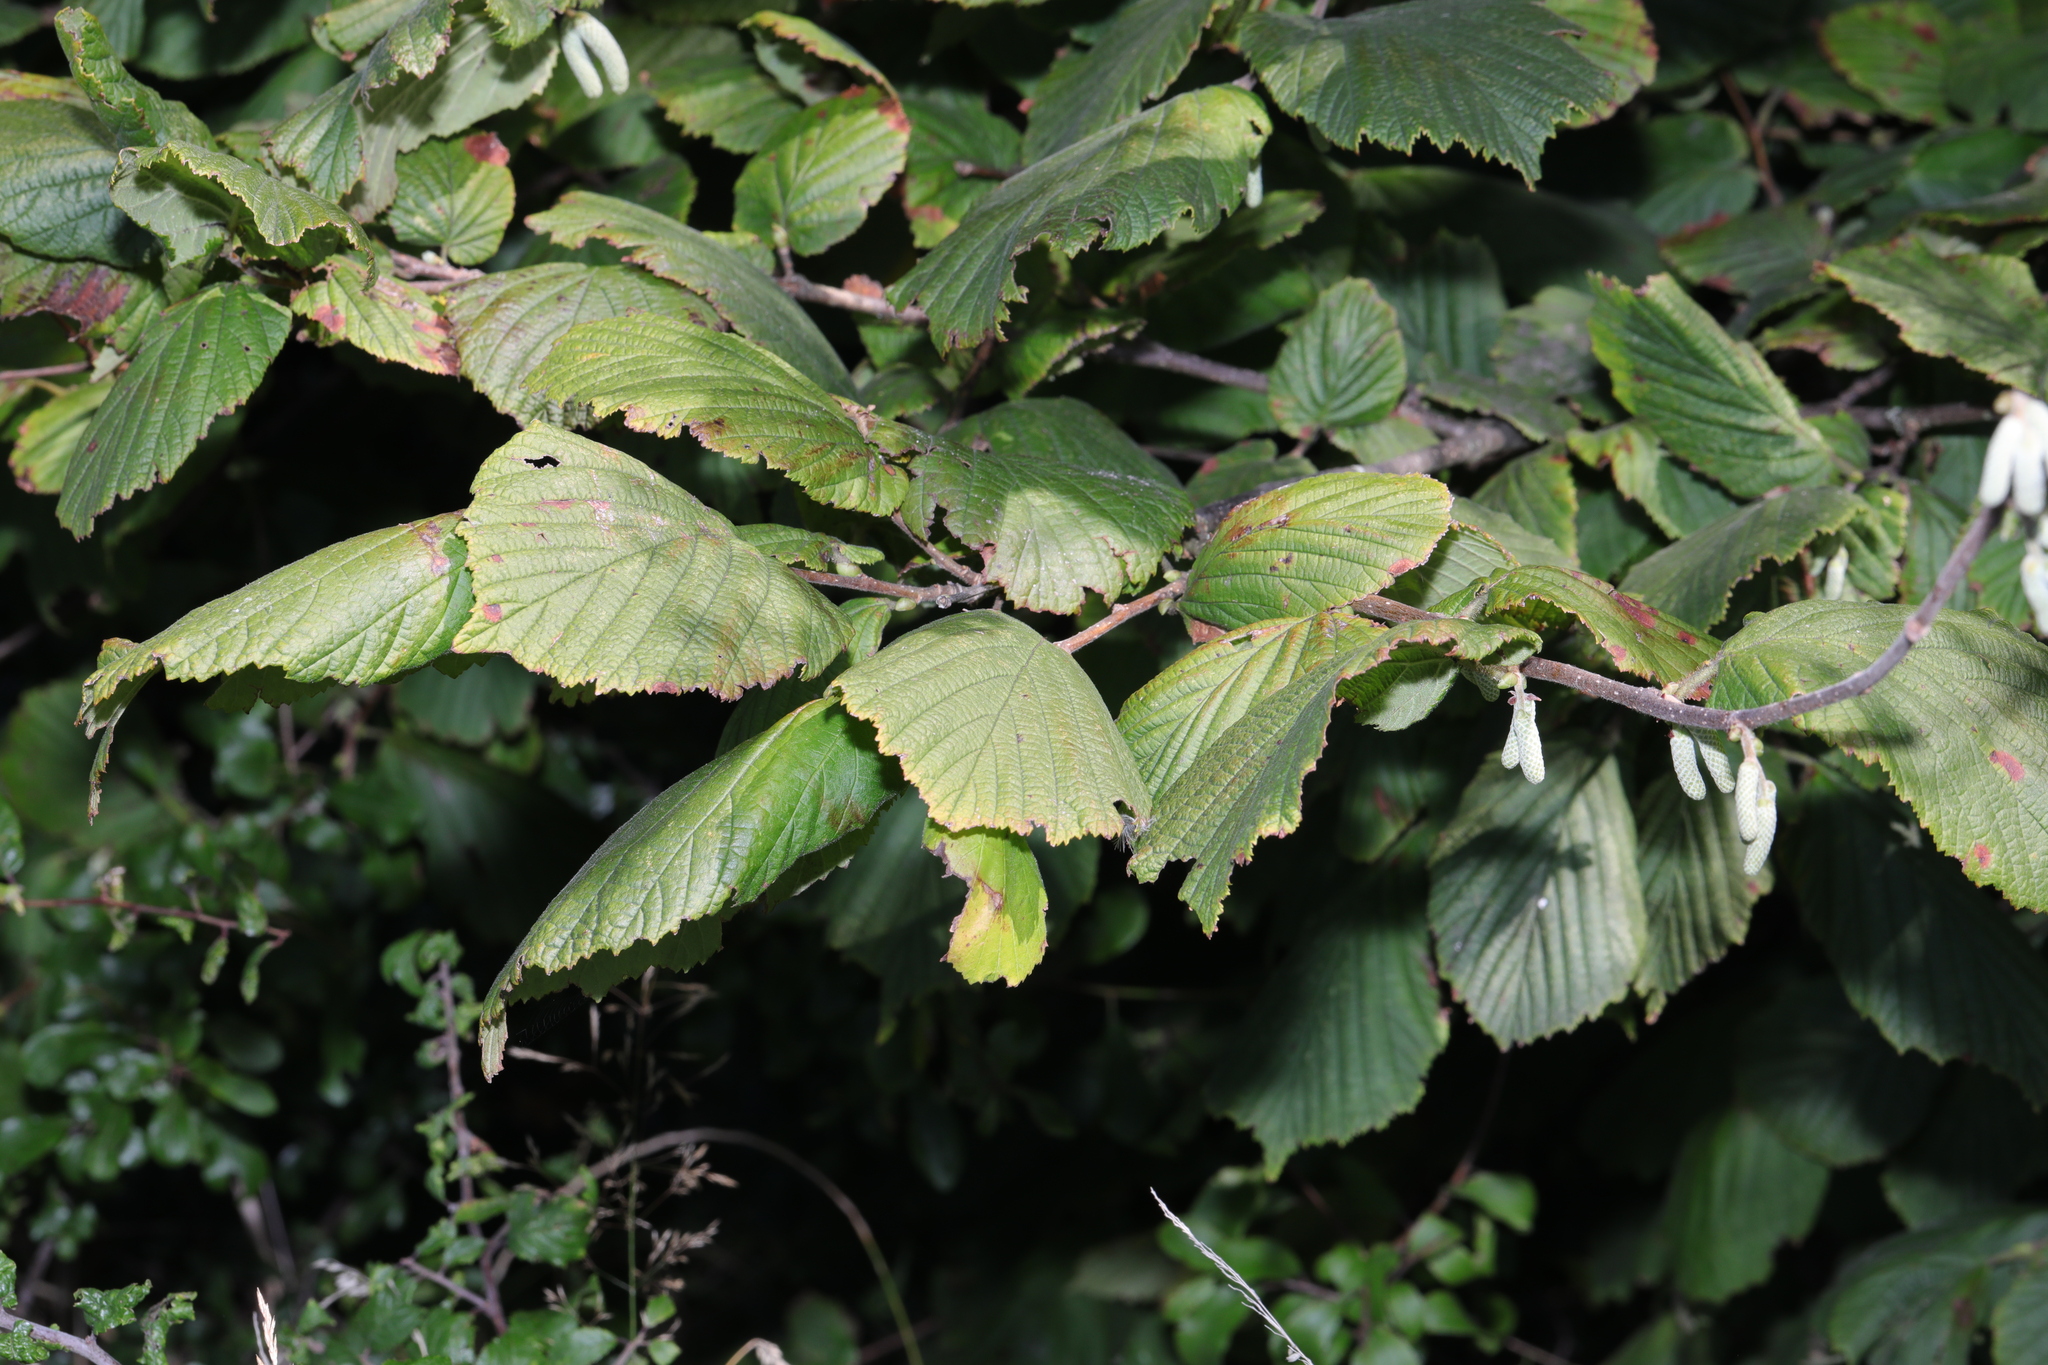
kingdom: Plantae
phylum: Tracheophyta
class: Magnoliopsida
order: Fagales
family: Betulaceae
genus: Corylus
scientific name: Corylus avellana
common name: European hazel
